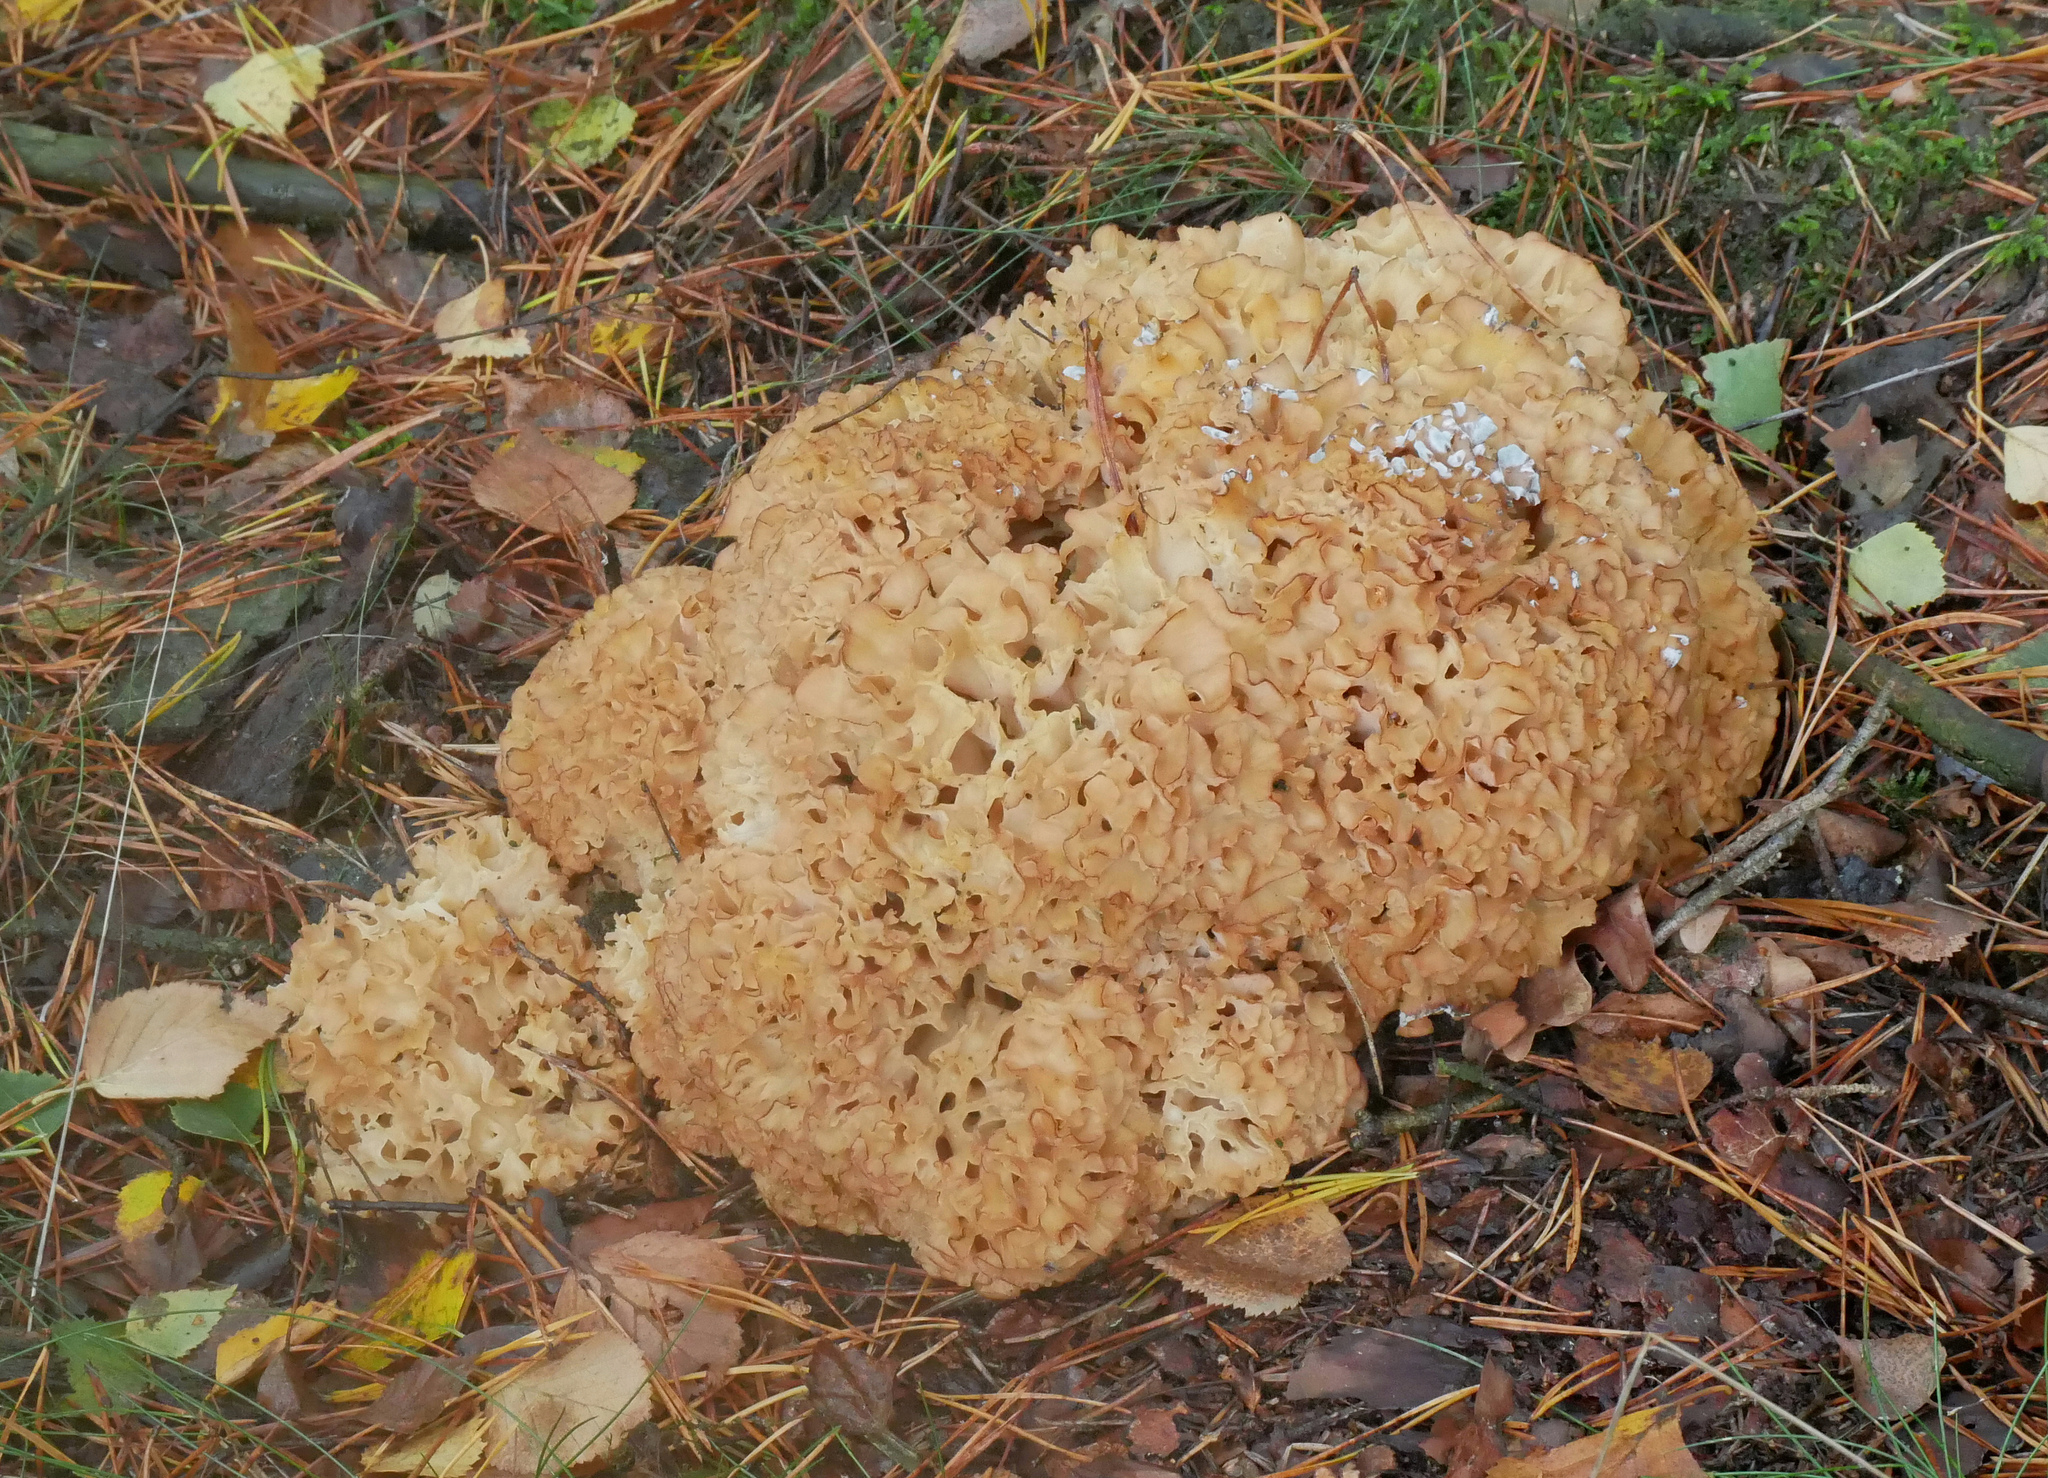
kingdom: Fungi
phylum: Basidiomycota
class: Agaricomycetes
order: Polyporales
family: Sparassidaceae
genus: Sparassis
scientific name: Sparassis crispa
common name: Brain fungus
